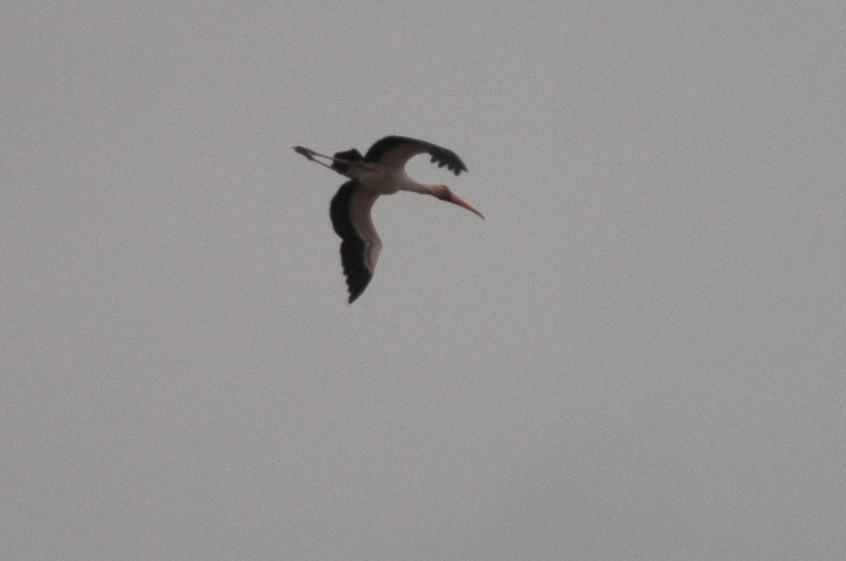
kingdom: Animalia
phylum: Chordata
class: Aves
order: Ciconiiformes
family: Ciconiidae
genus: Mycteria
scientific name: Mycteria ibis
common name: Yellow-billed stork
